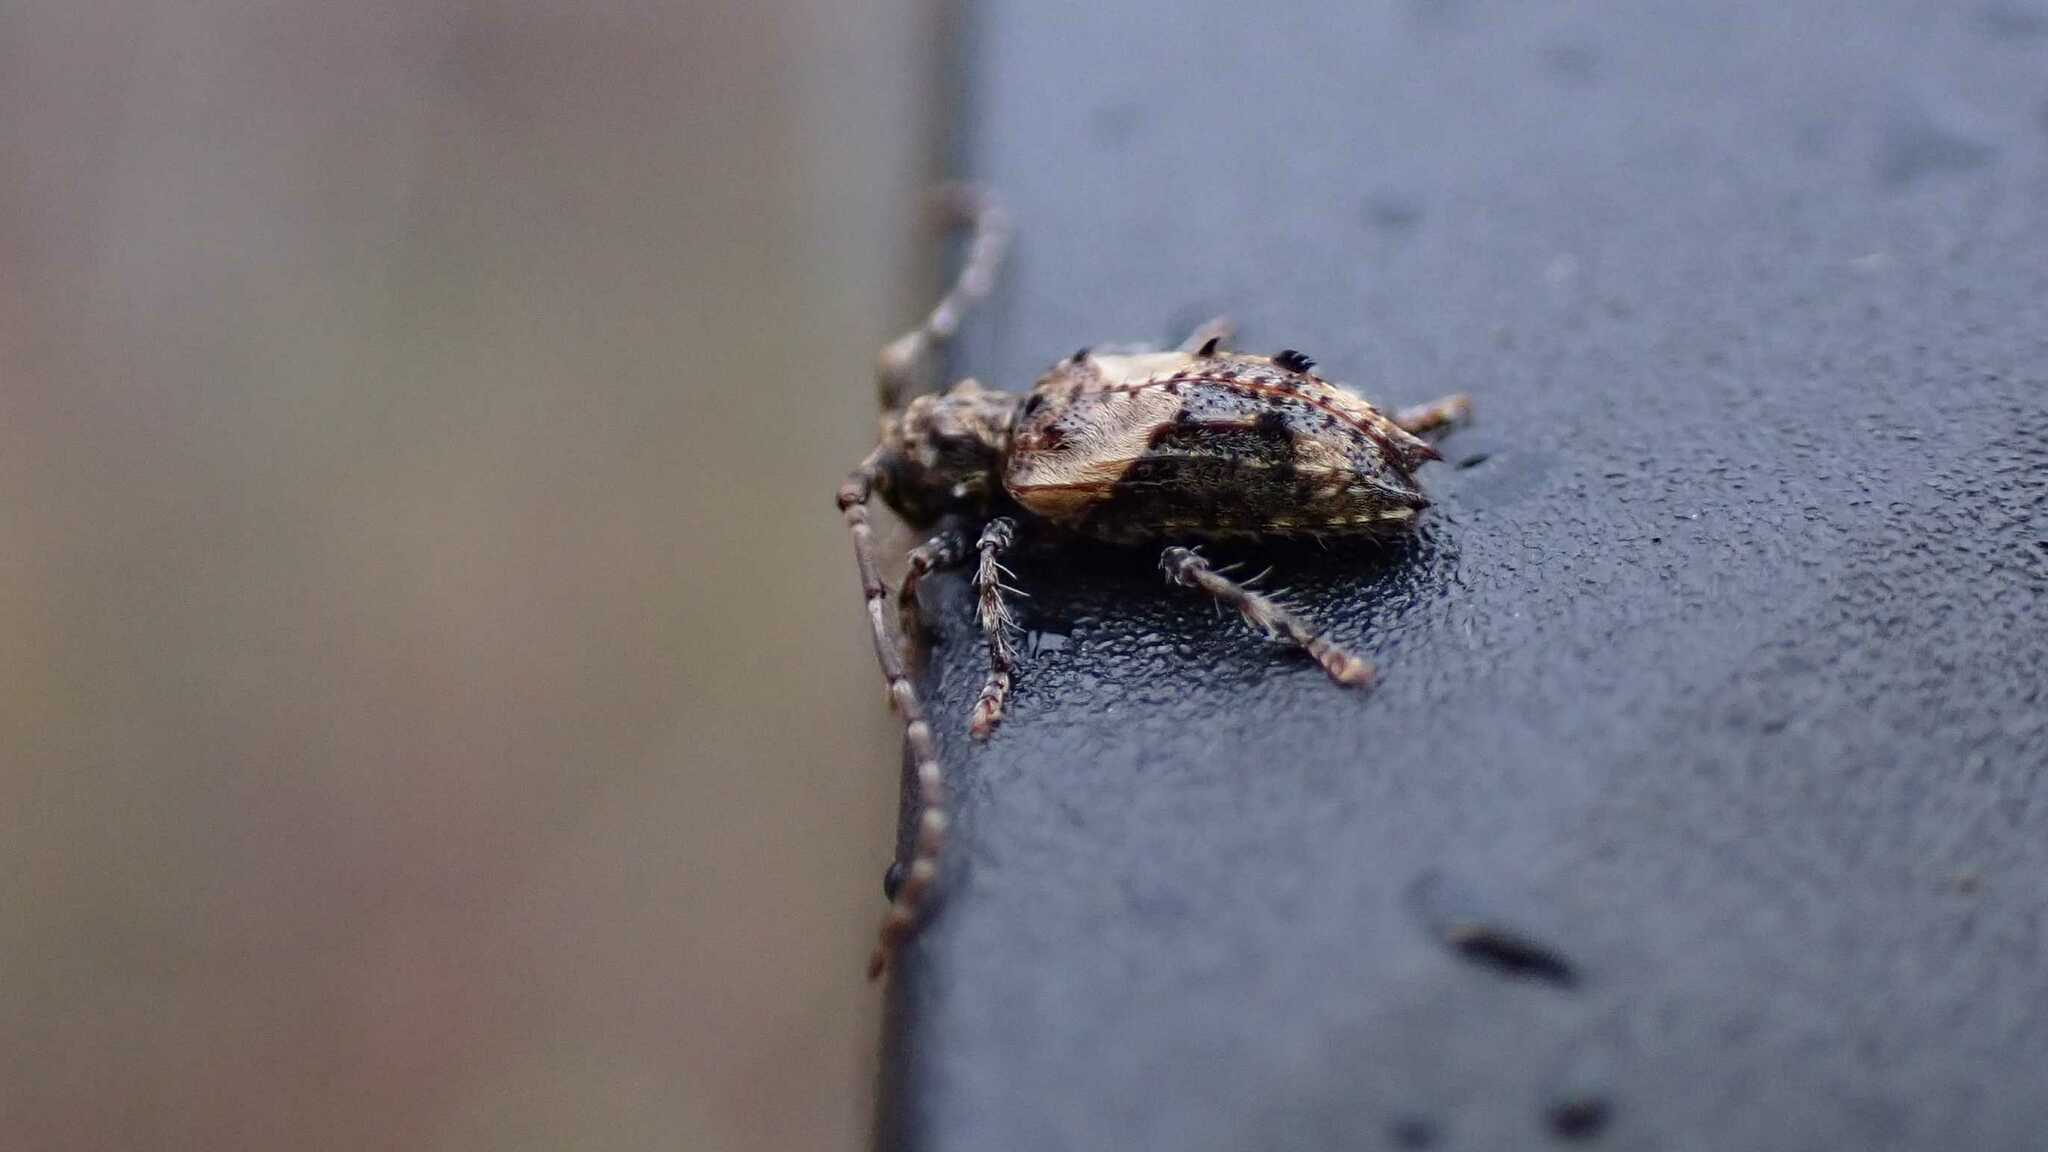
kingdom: Animalia
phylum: Arthropoda
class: Insecta
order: Coleoptera
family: Cerambycidae
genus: Pogonocherus
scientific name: Pogonocherus hispidus
